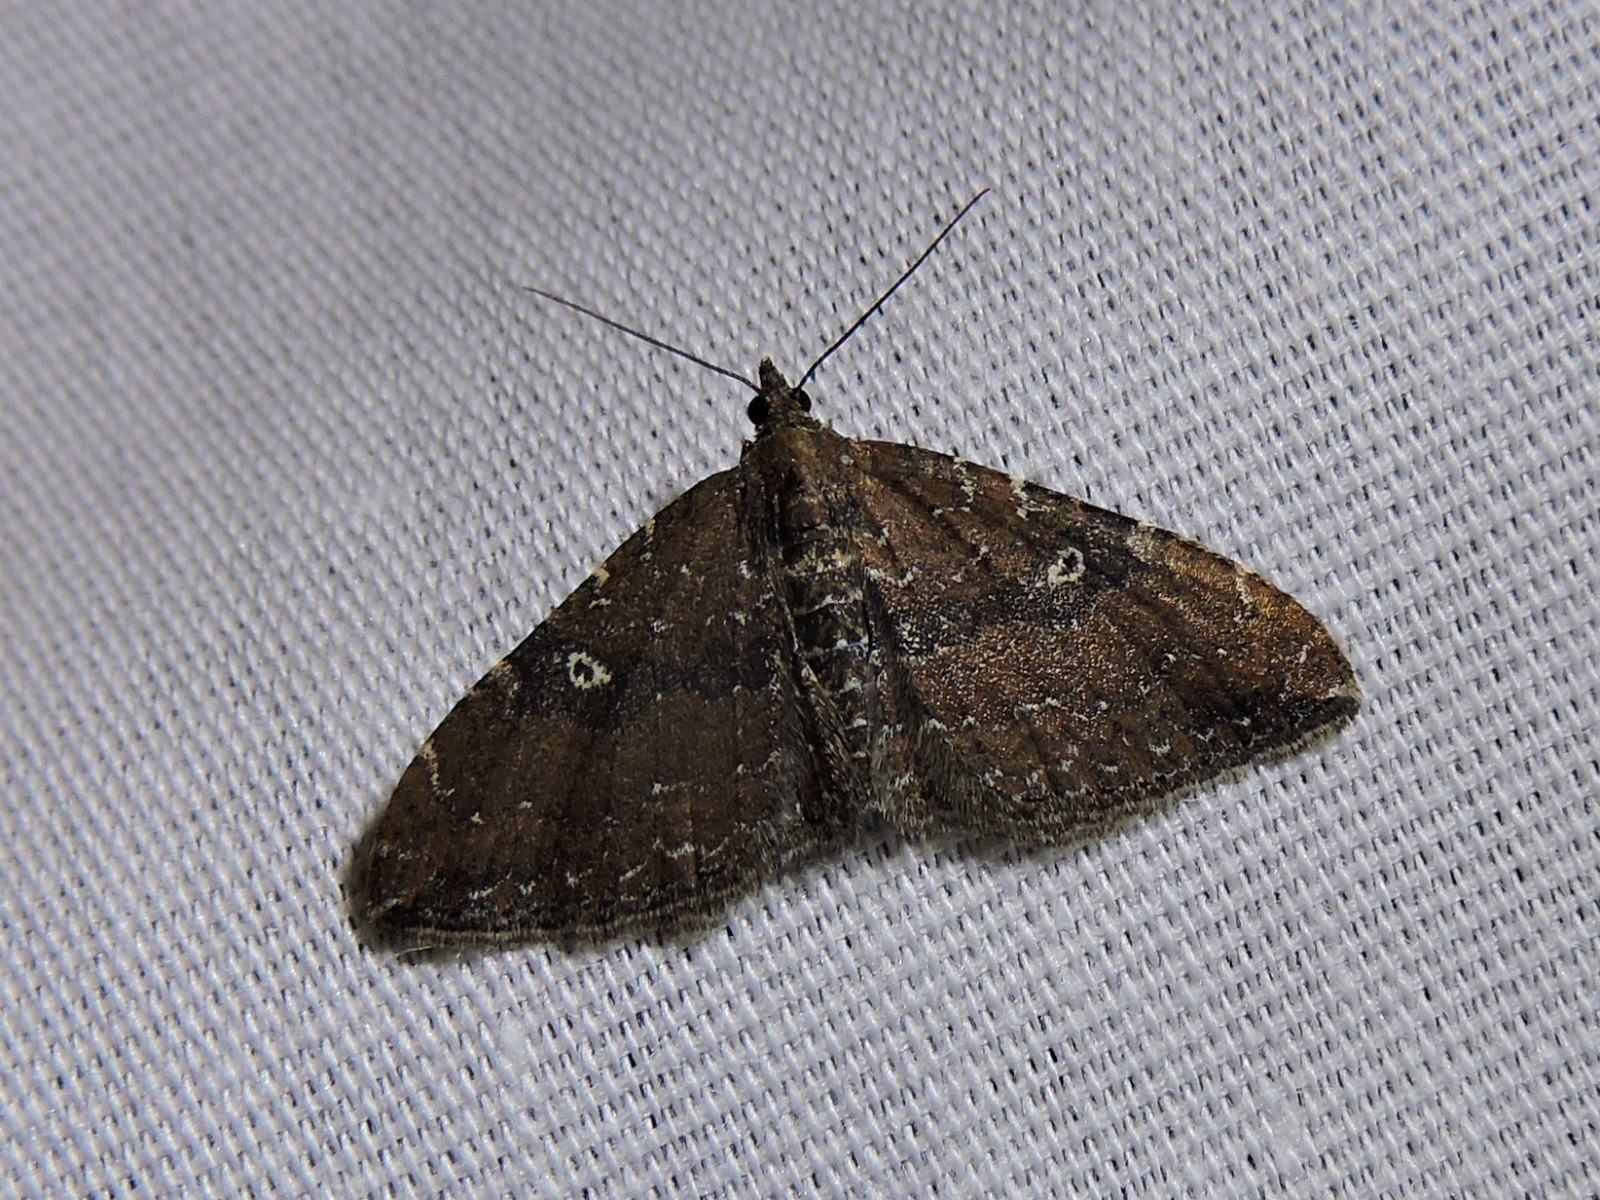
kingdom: Animalia
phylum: Arthropoda
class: Insecta
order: Lepidoptera
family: Geometridae
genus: Orthonama
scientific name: Orthonama obstipata
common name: The gem
